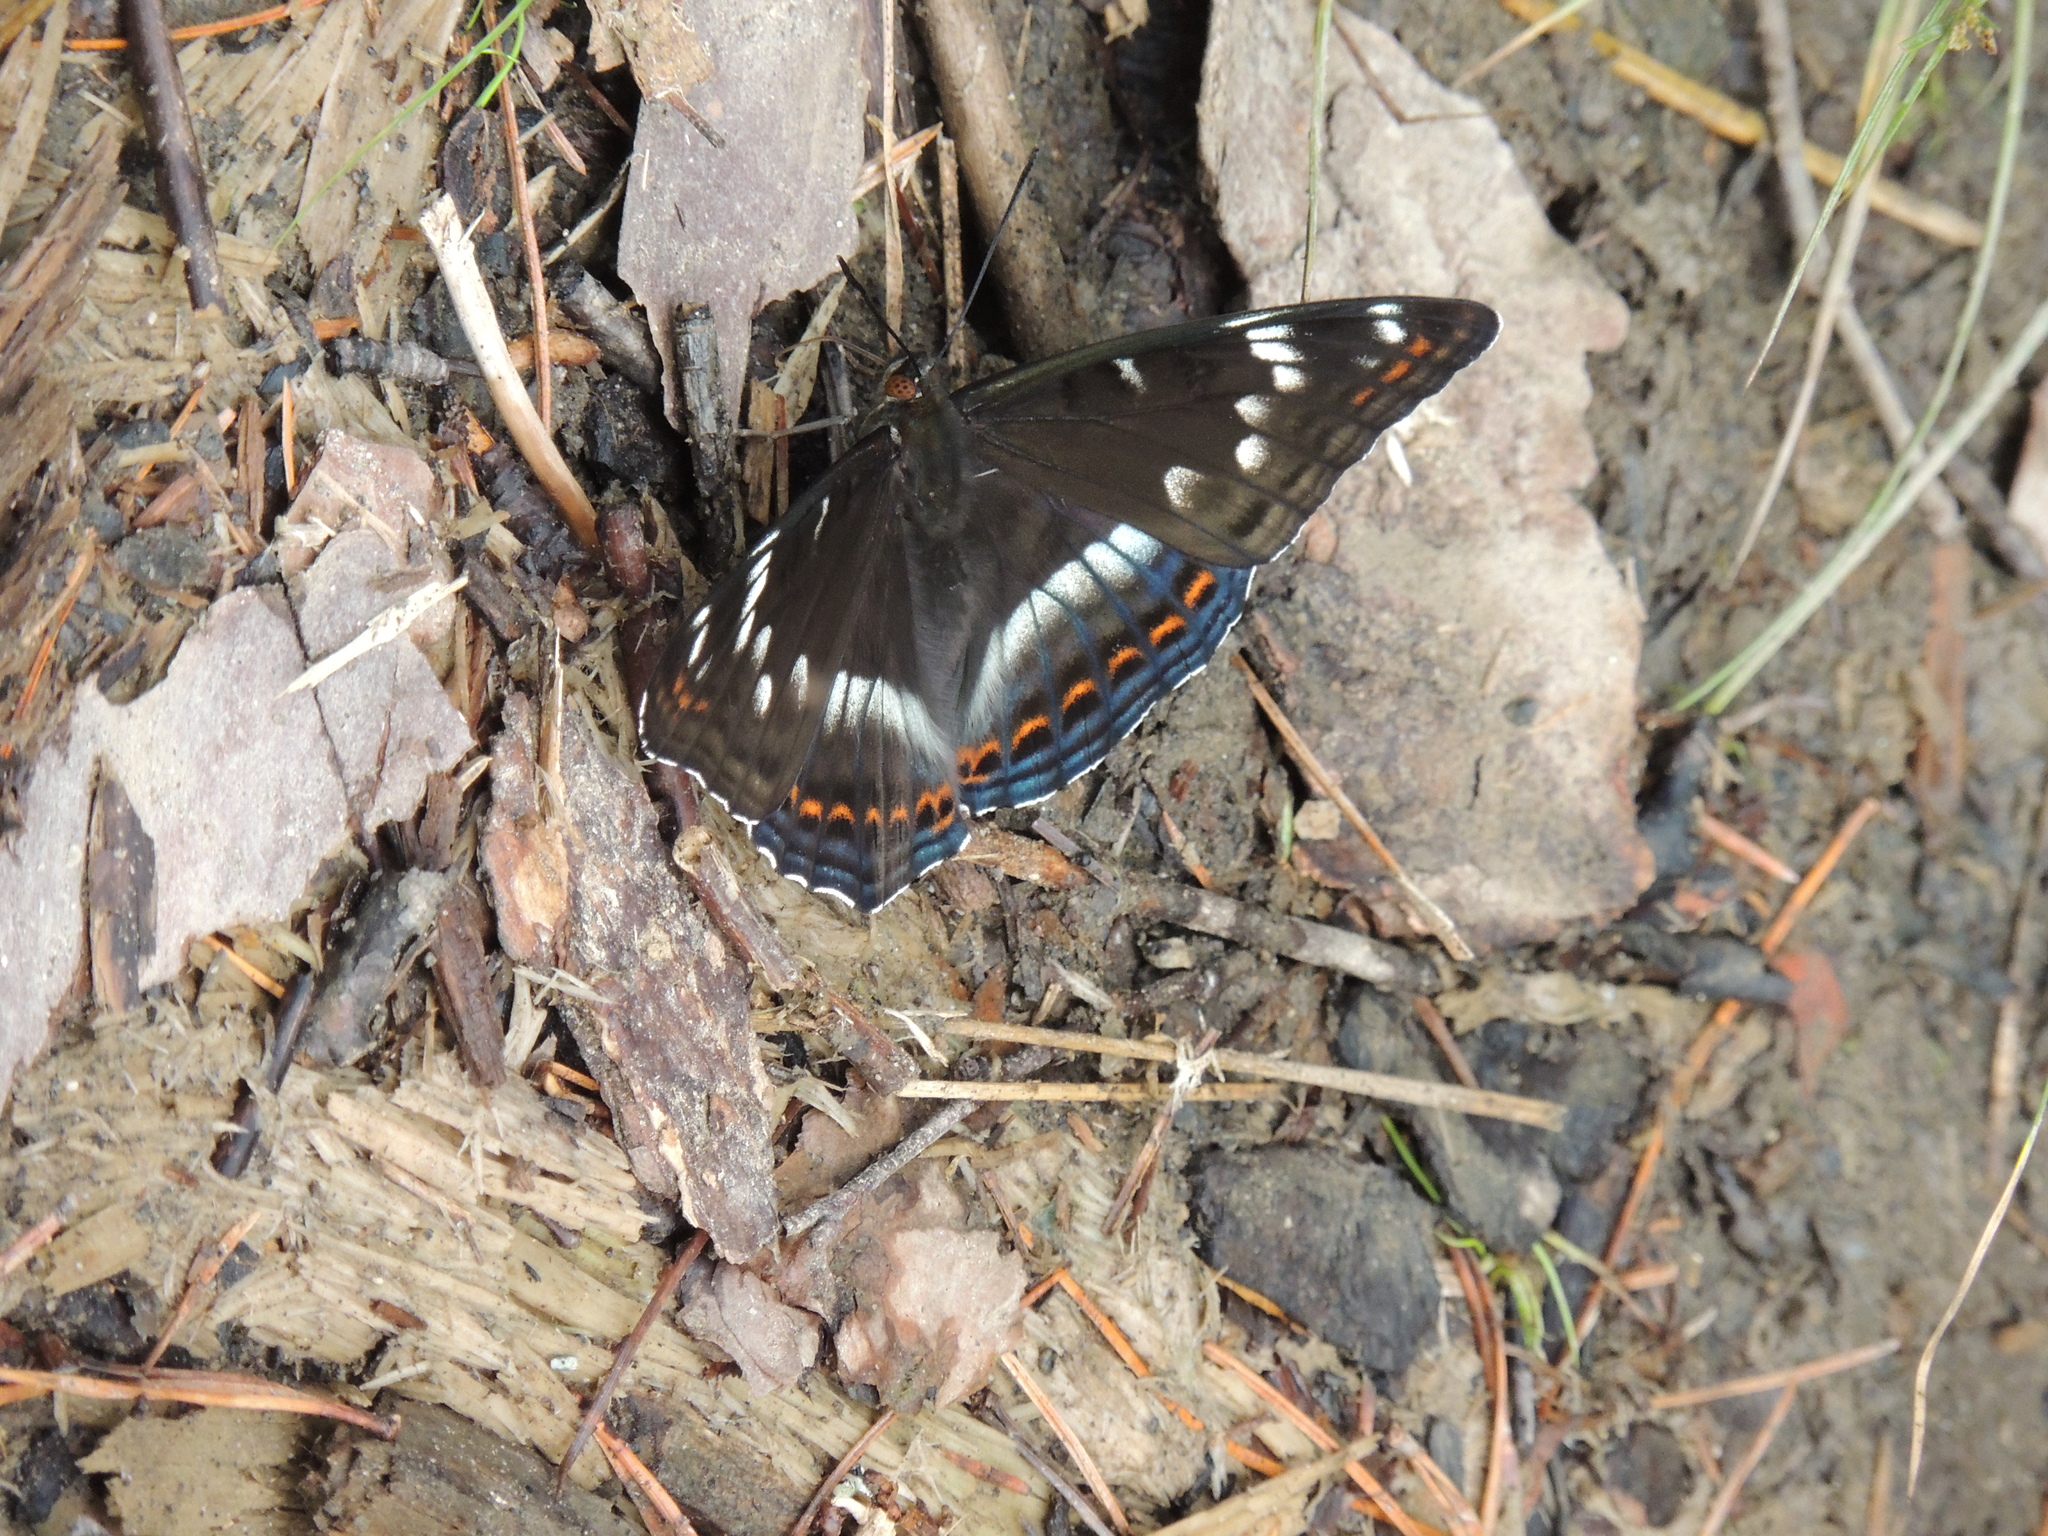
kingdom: Animalia
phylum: Arthropoda
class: Insecta
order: Lepidoptera
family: Nymphalidae
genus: Limenitis
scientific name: Limenitis populi
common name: Poplar admiral
